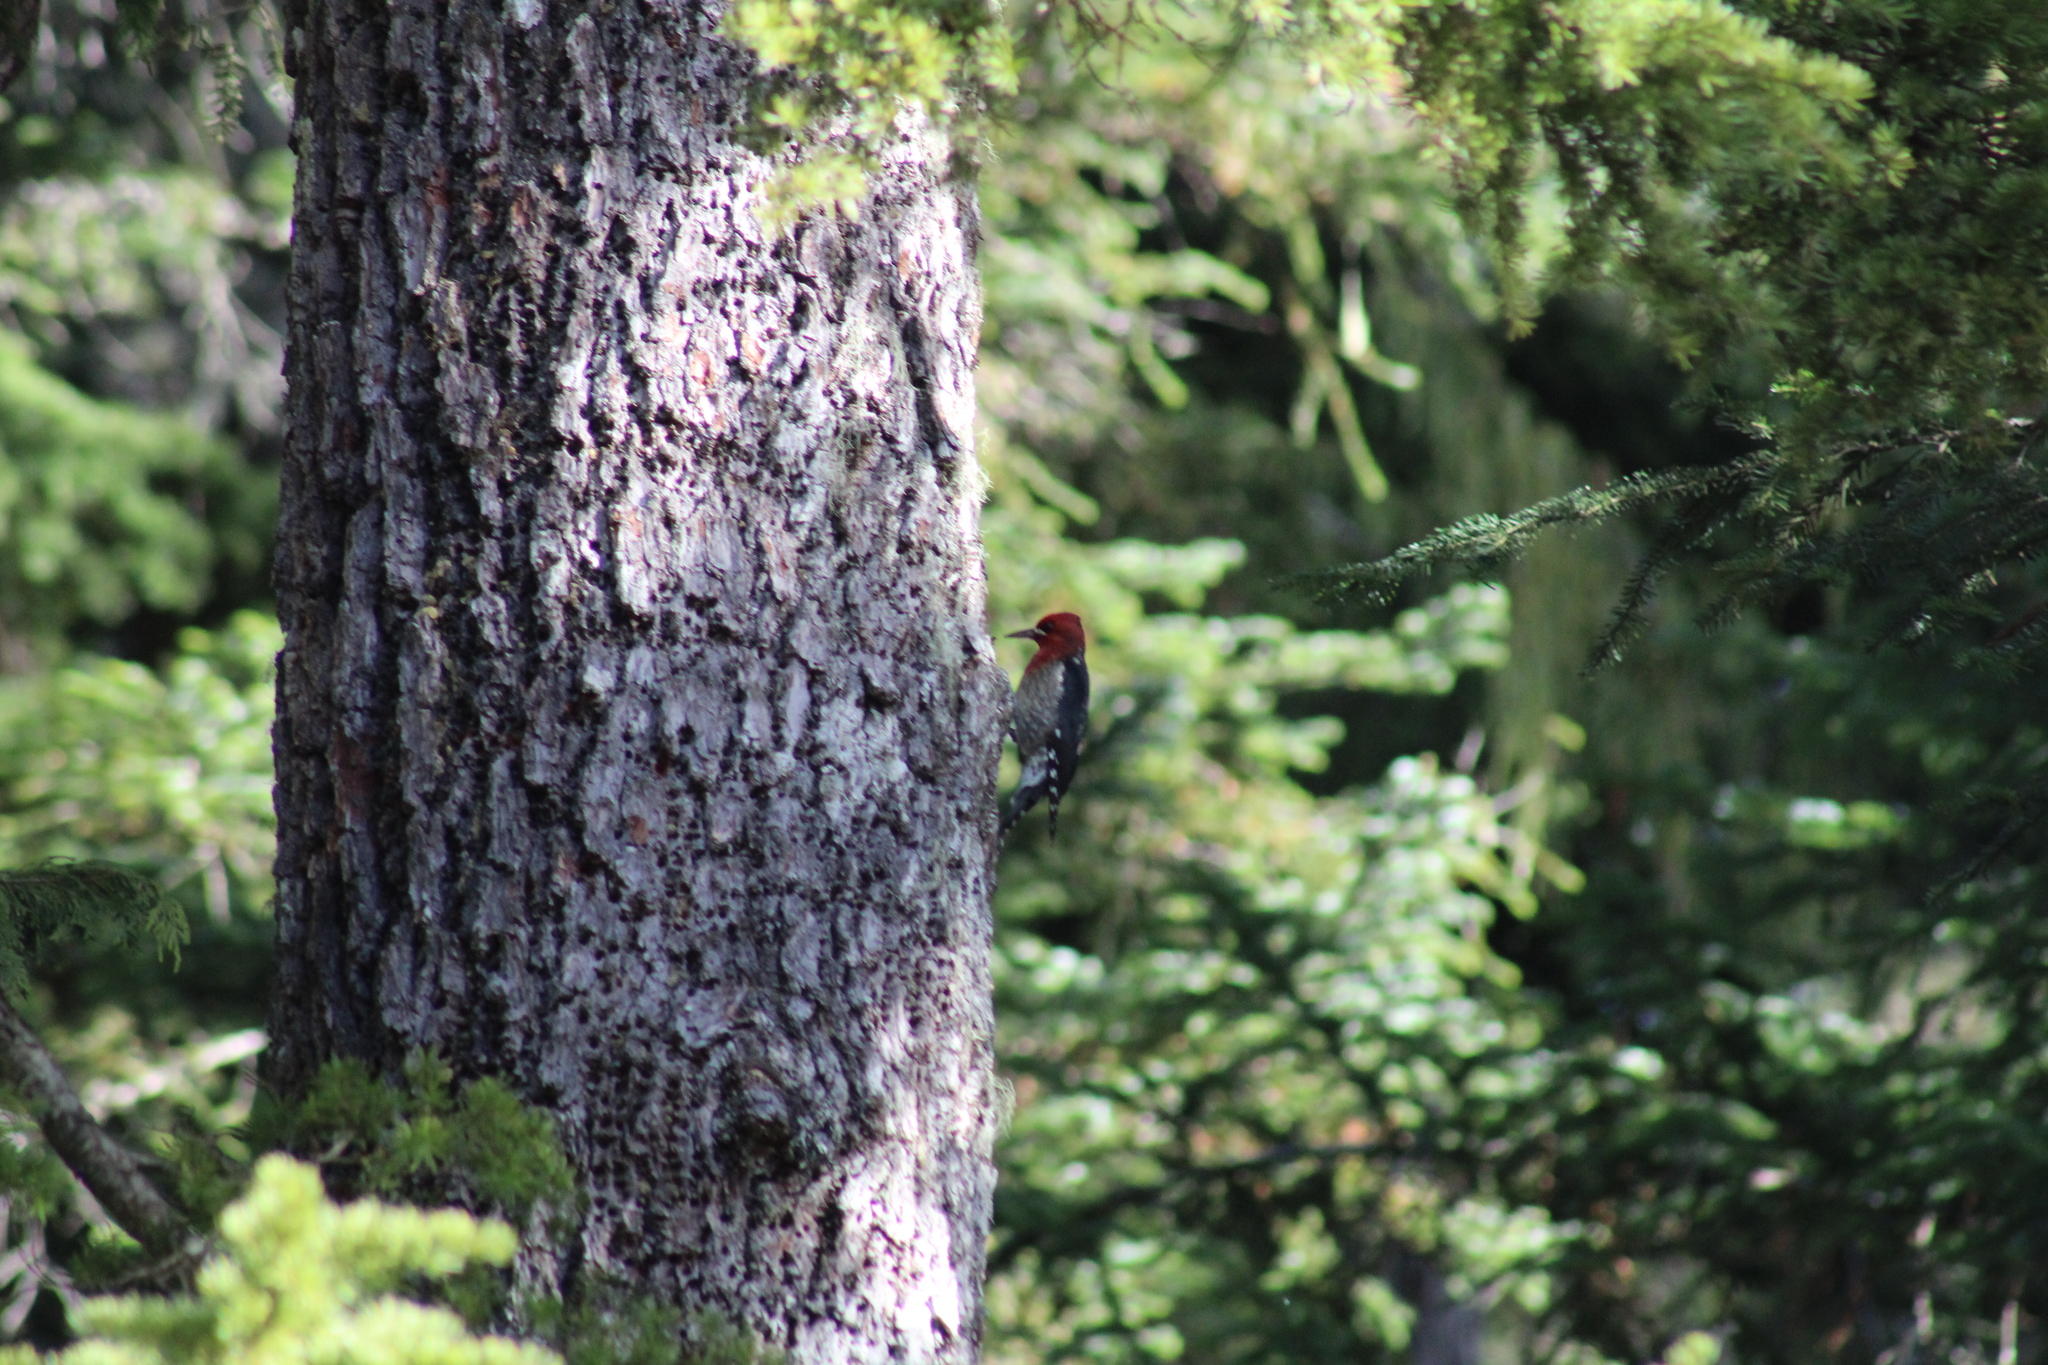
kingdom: Animalia
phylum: Chordata
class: Aves
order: Piciformes
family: Picidae
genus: Sphyrapicus
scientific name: Sphyrapicus ruber
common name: Red-breasted sapsucker
